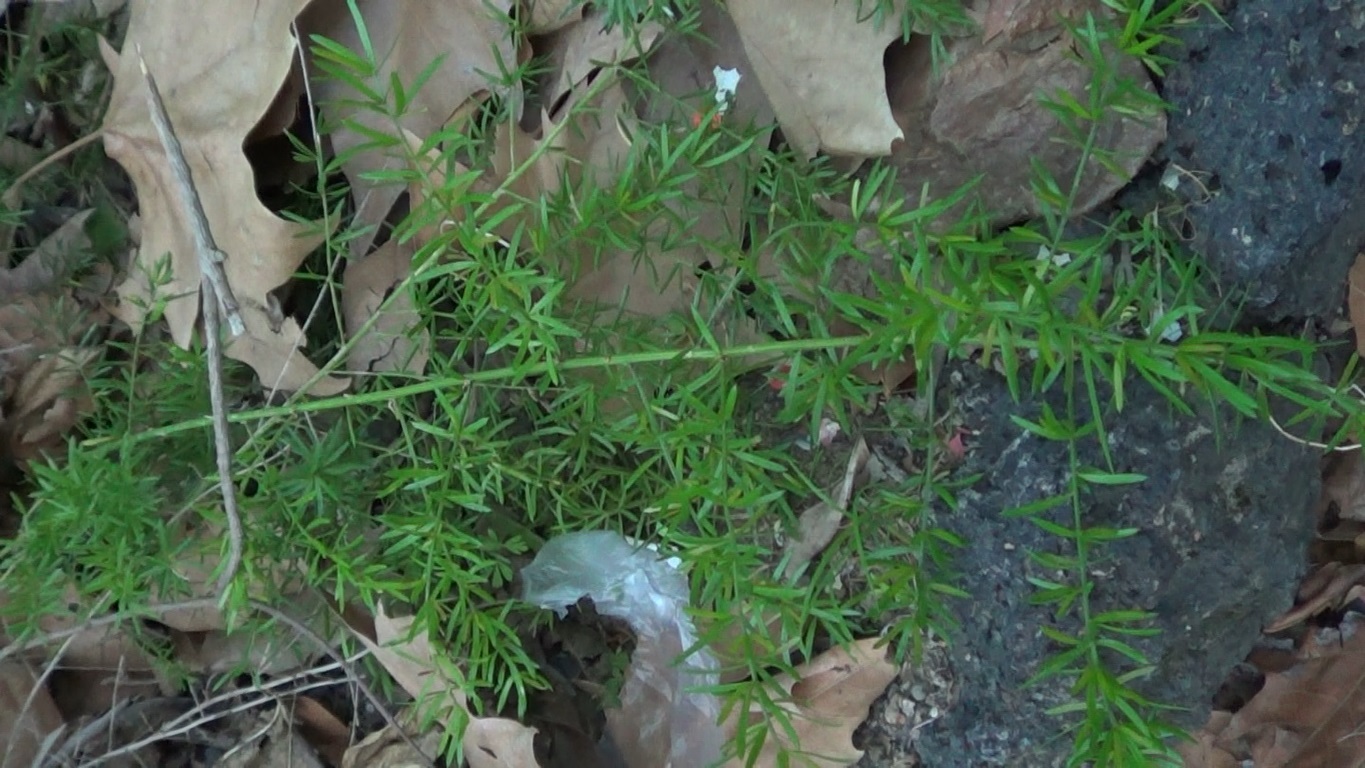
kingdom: Plantae
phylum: Tracheophyta
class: Liliopsida
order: Asparagales
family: Asparagaceae
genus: Asparagus
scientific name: Asparagus aethiopicus
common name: Sprenger's asparagus fern
